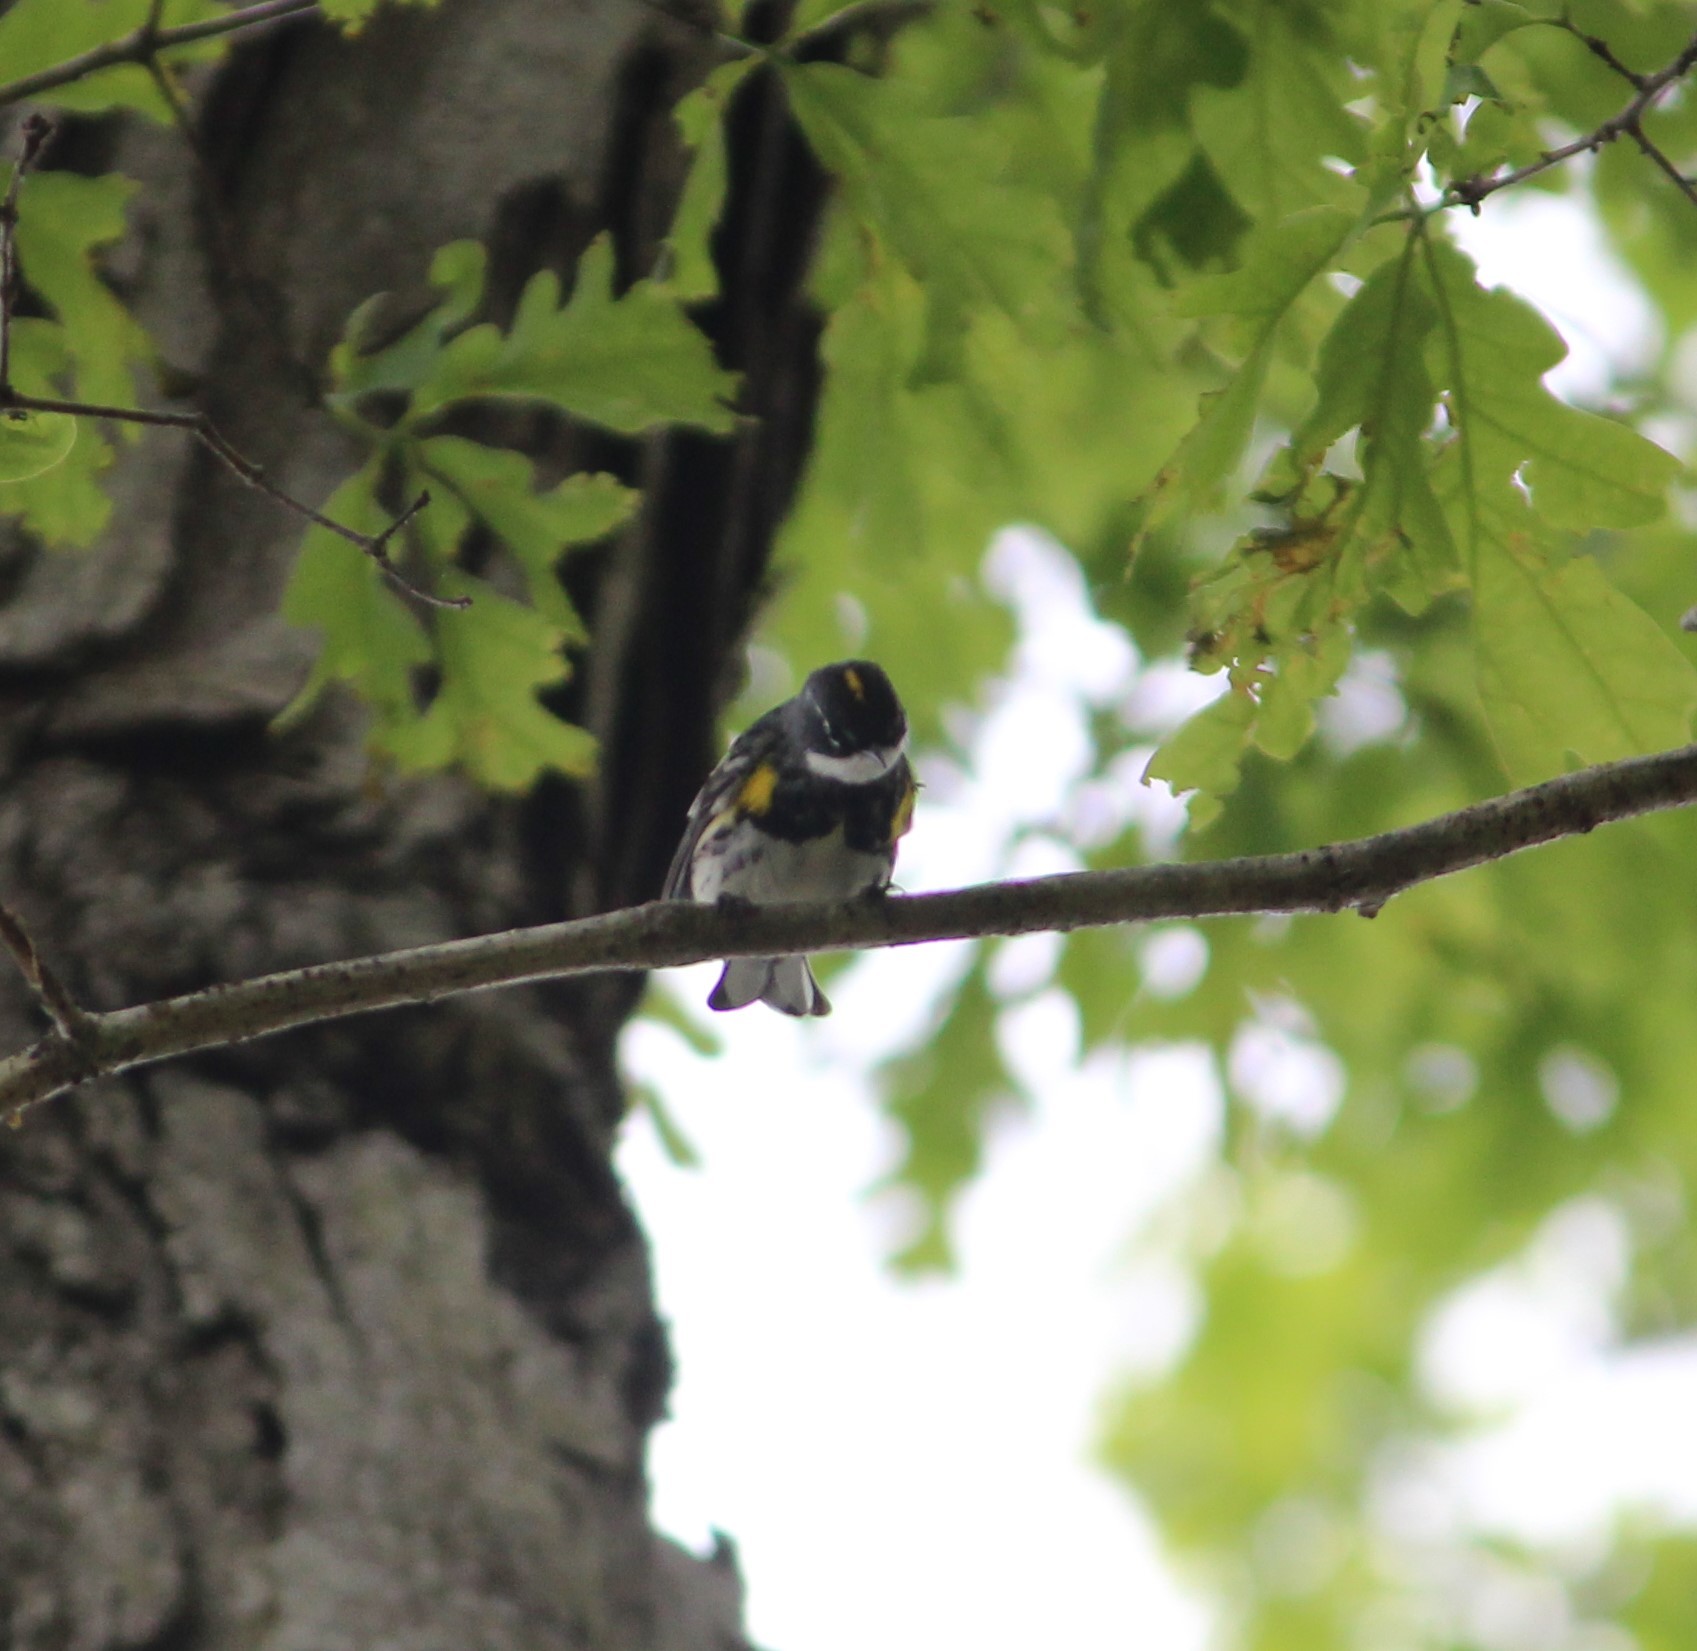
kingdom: Animalia
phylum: Chordata
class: Aves
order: Passeriformes
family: Parulidae
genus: Setophaga
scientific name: Setophaga coronata
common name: Myrtle warbler
